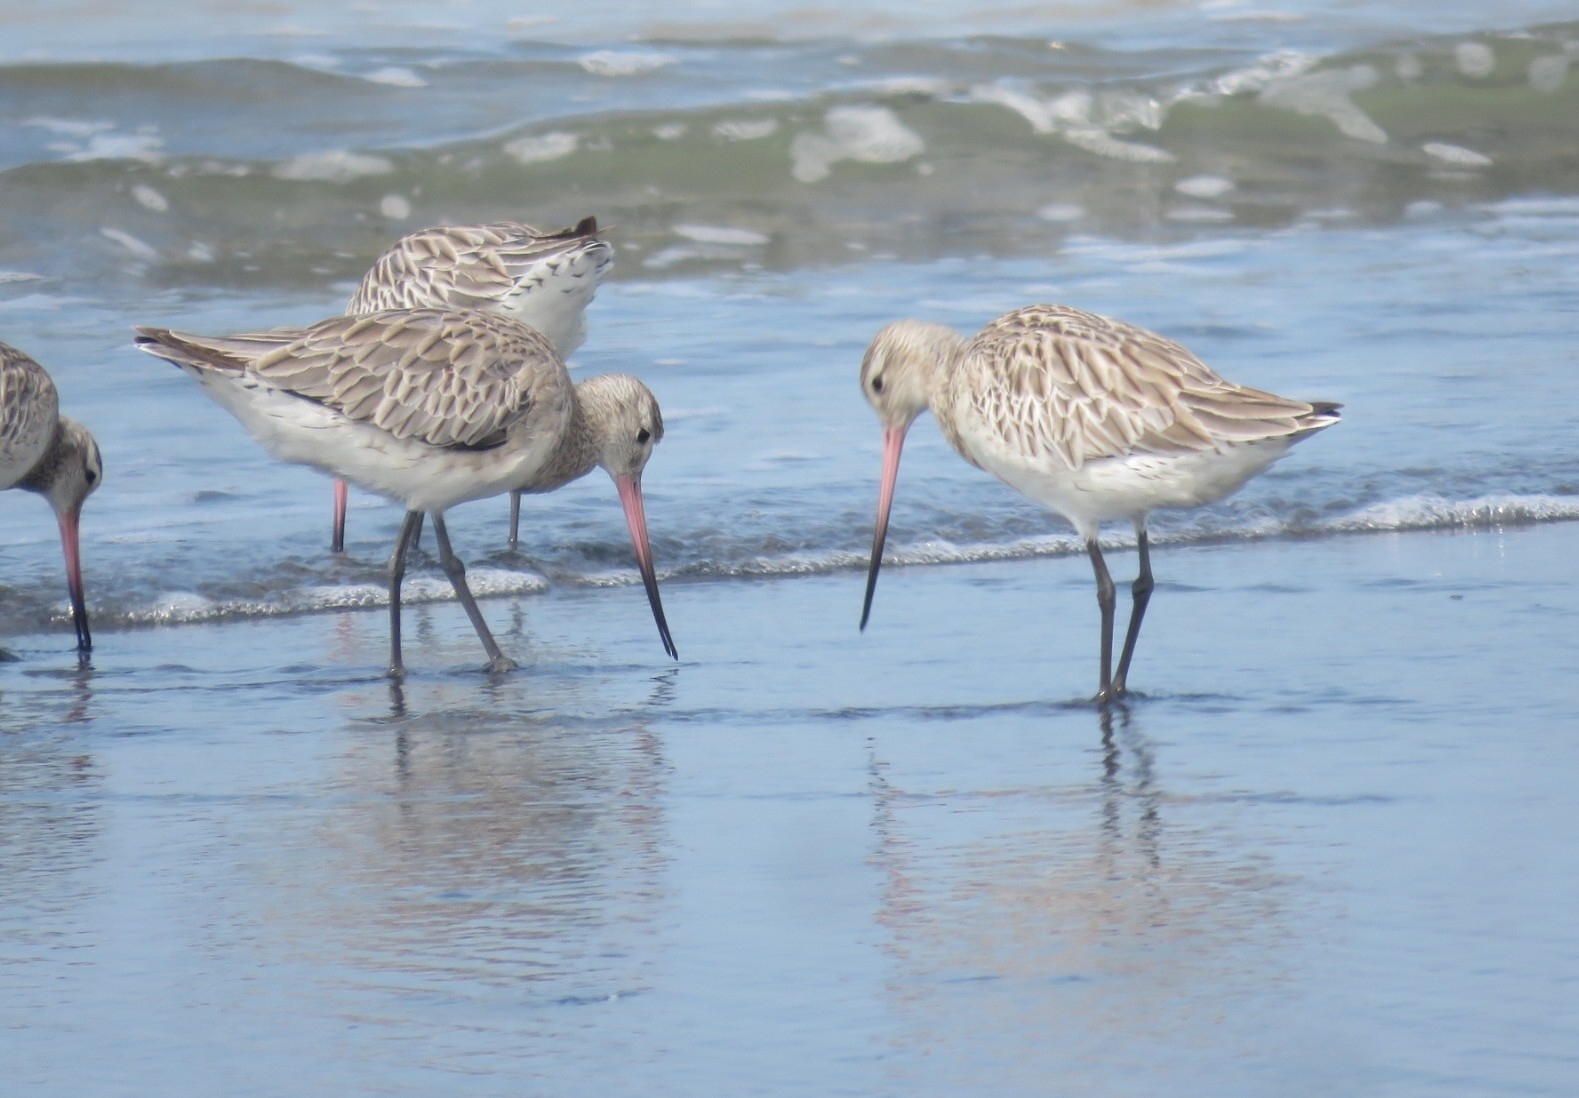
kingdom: Animalia
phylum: Chordata
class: Aves
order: Charadriiformes
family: Scolopacidae
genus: Limosa
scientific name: Limosa lapponica
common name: Bar-tailed godwit
